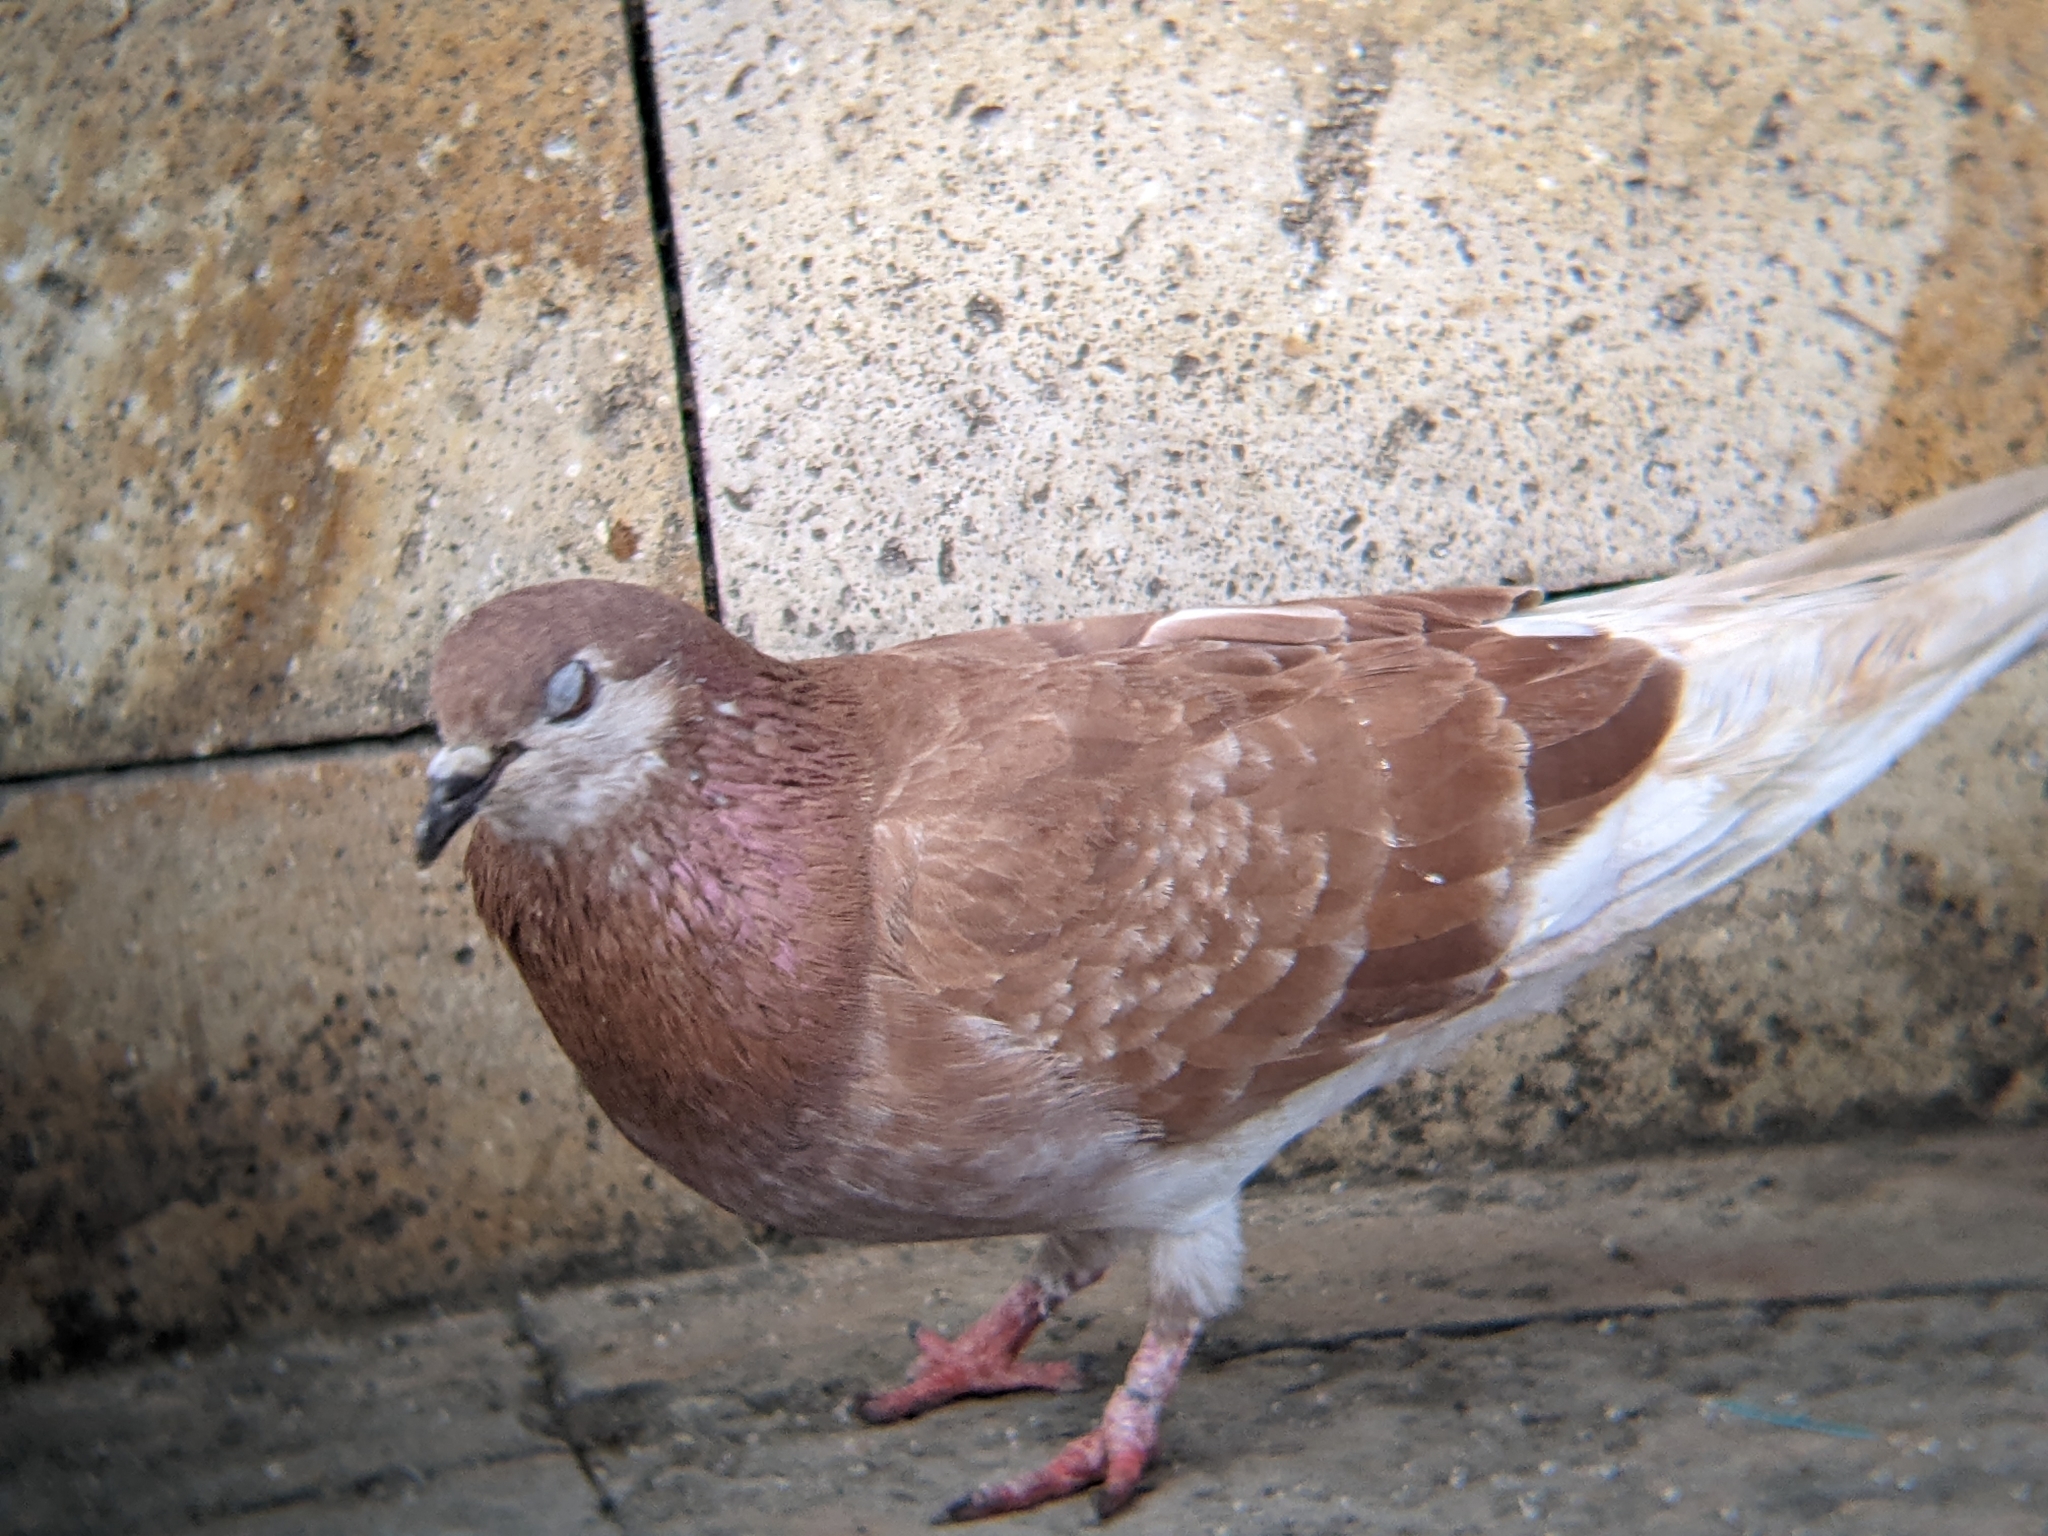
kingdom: Animalia
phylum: Chordata
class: Aves
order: Columbiformes
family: Columbidae
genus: Columba
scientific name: Columba livia
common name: Rock pigeon
